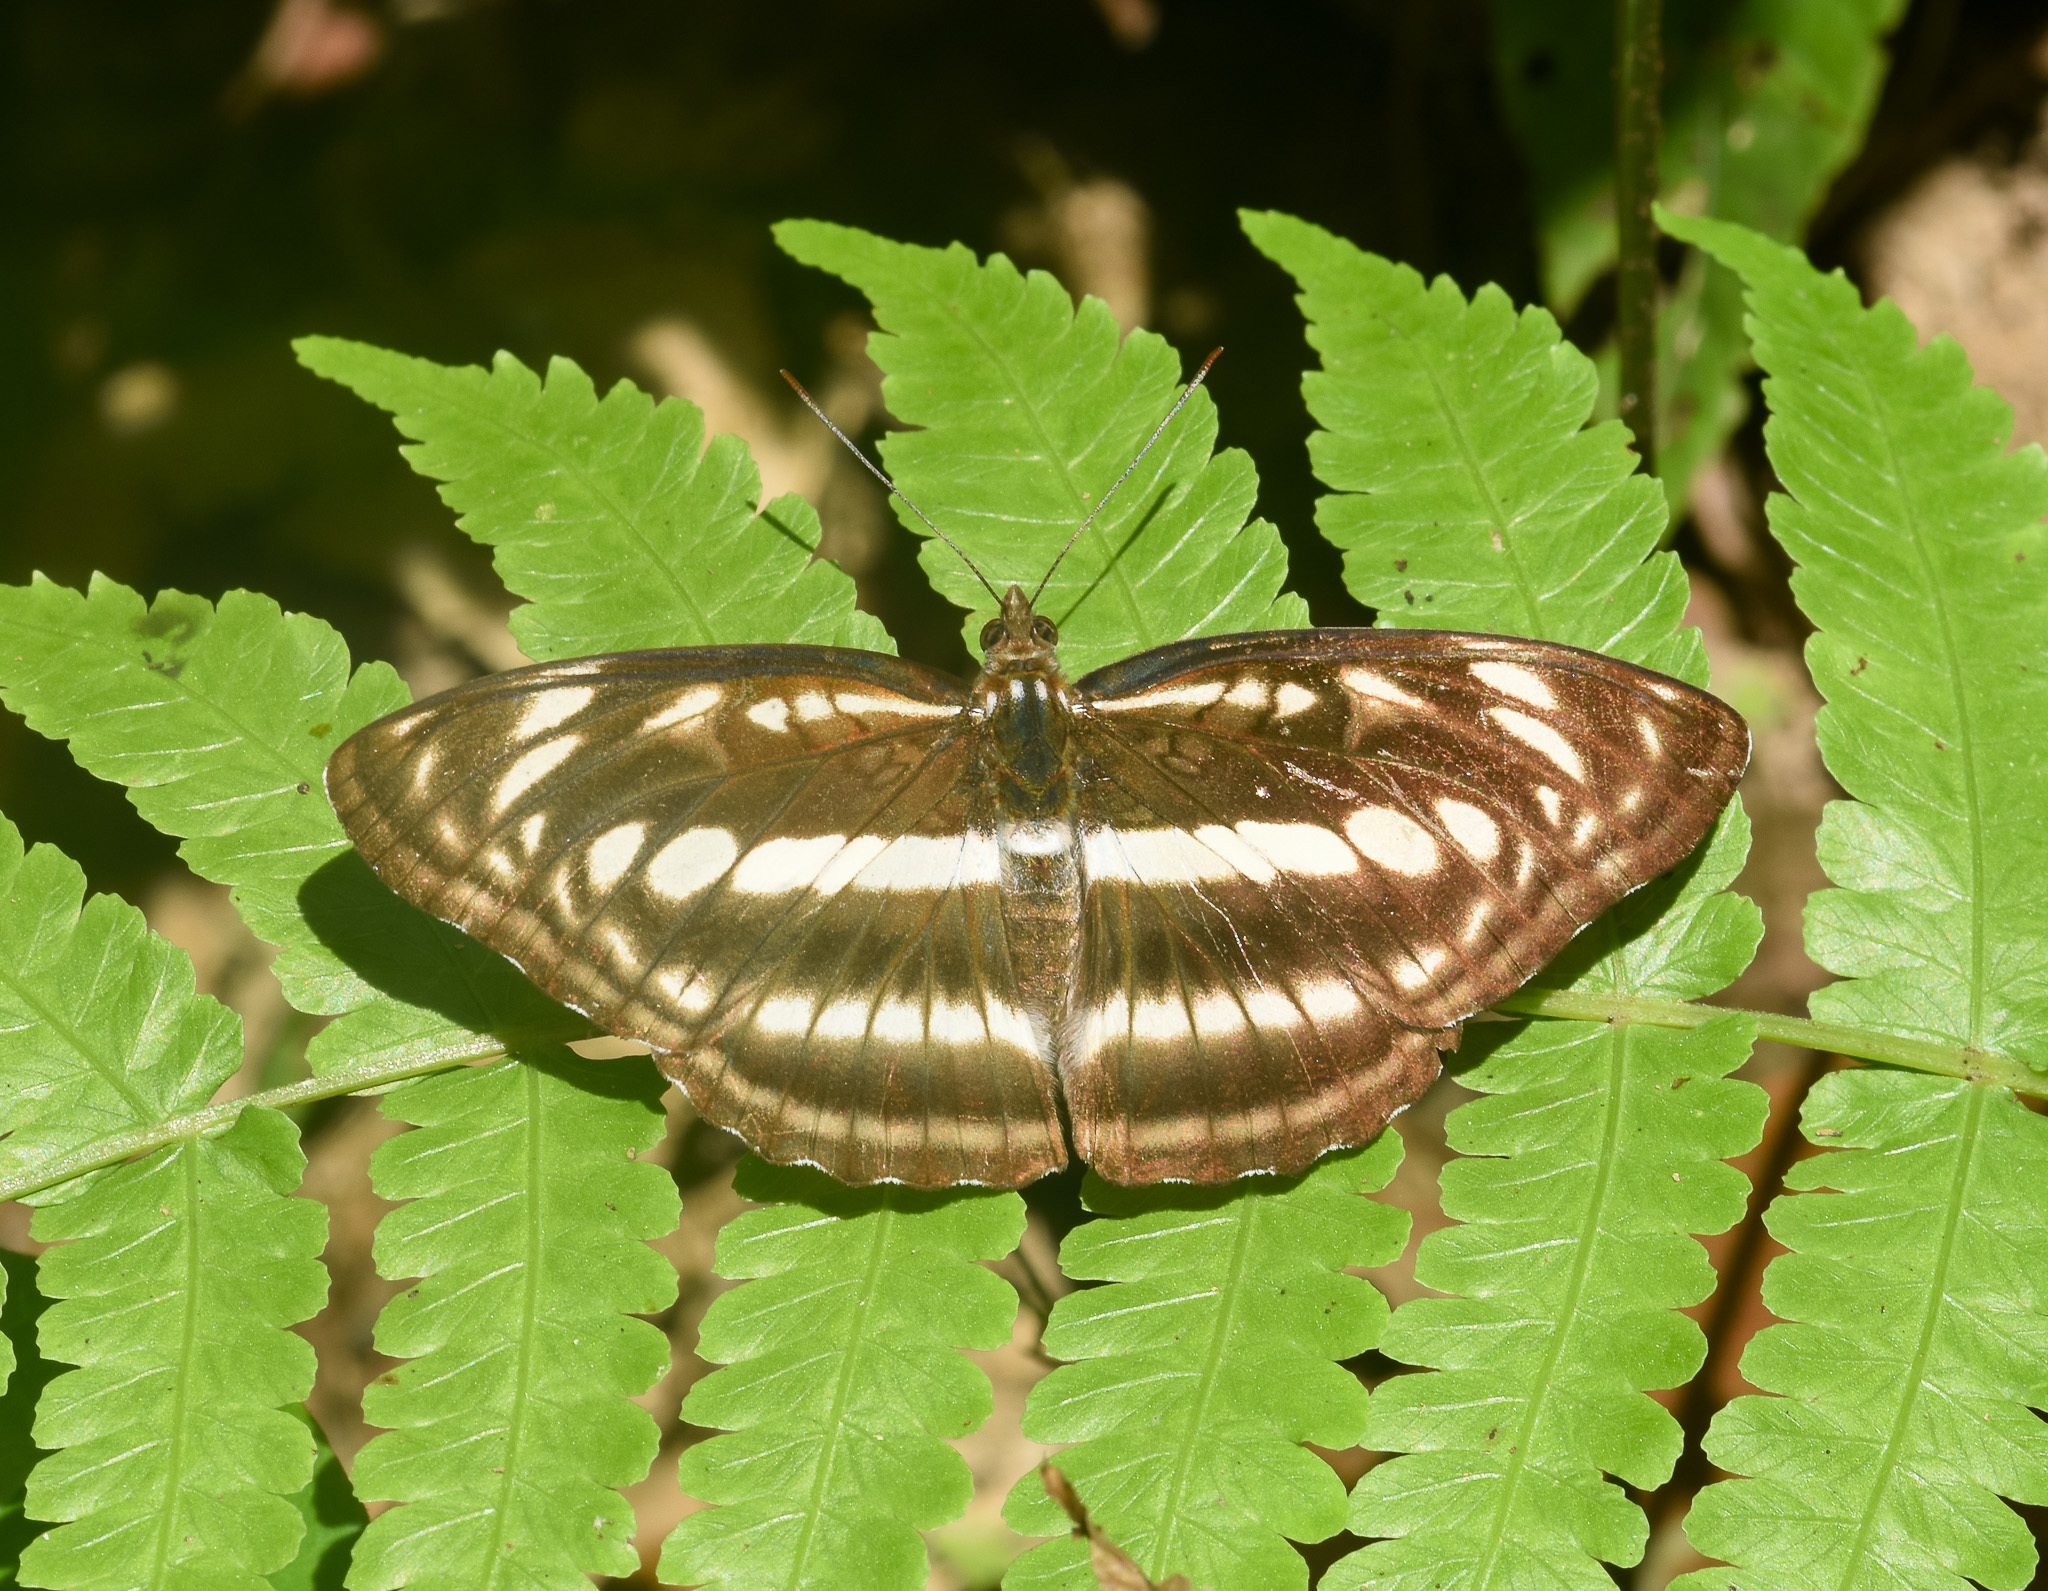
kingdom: Animalia
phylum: Arthropoda
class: Insecta
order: Lepidoptera
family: Nymphalidae
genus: Parathyma
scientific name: Parathyma selenophora
